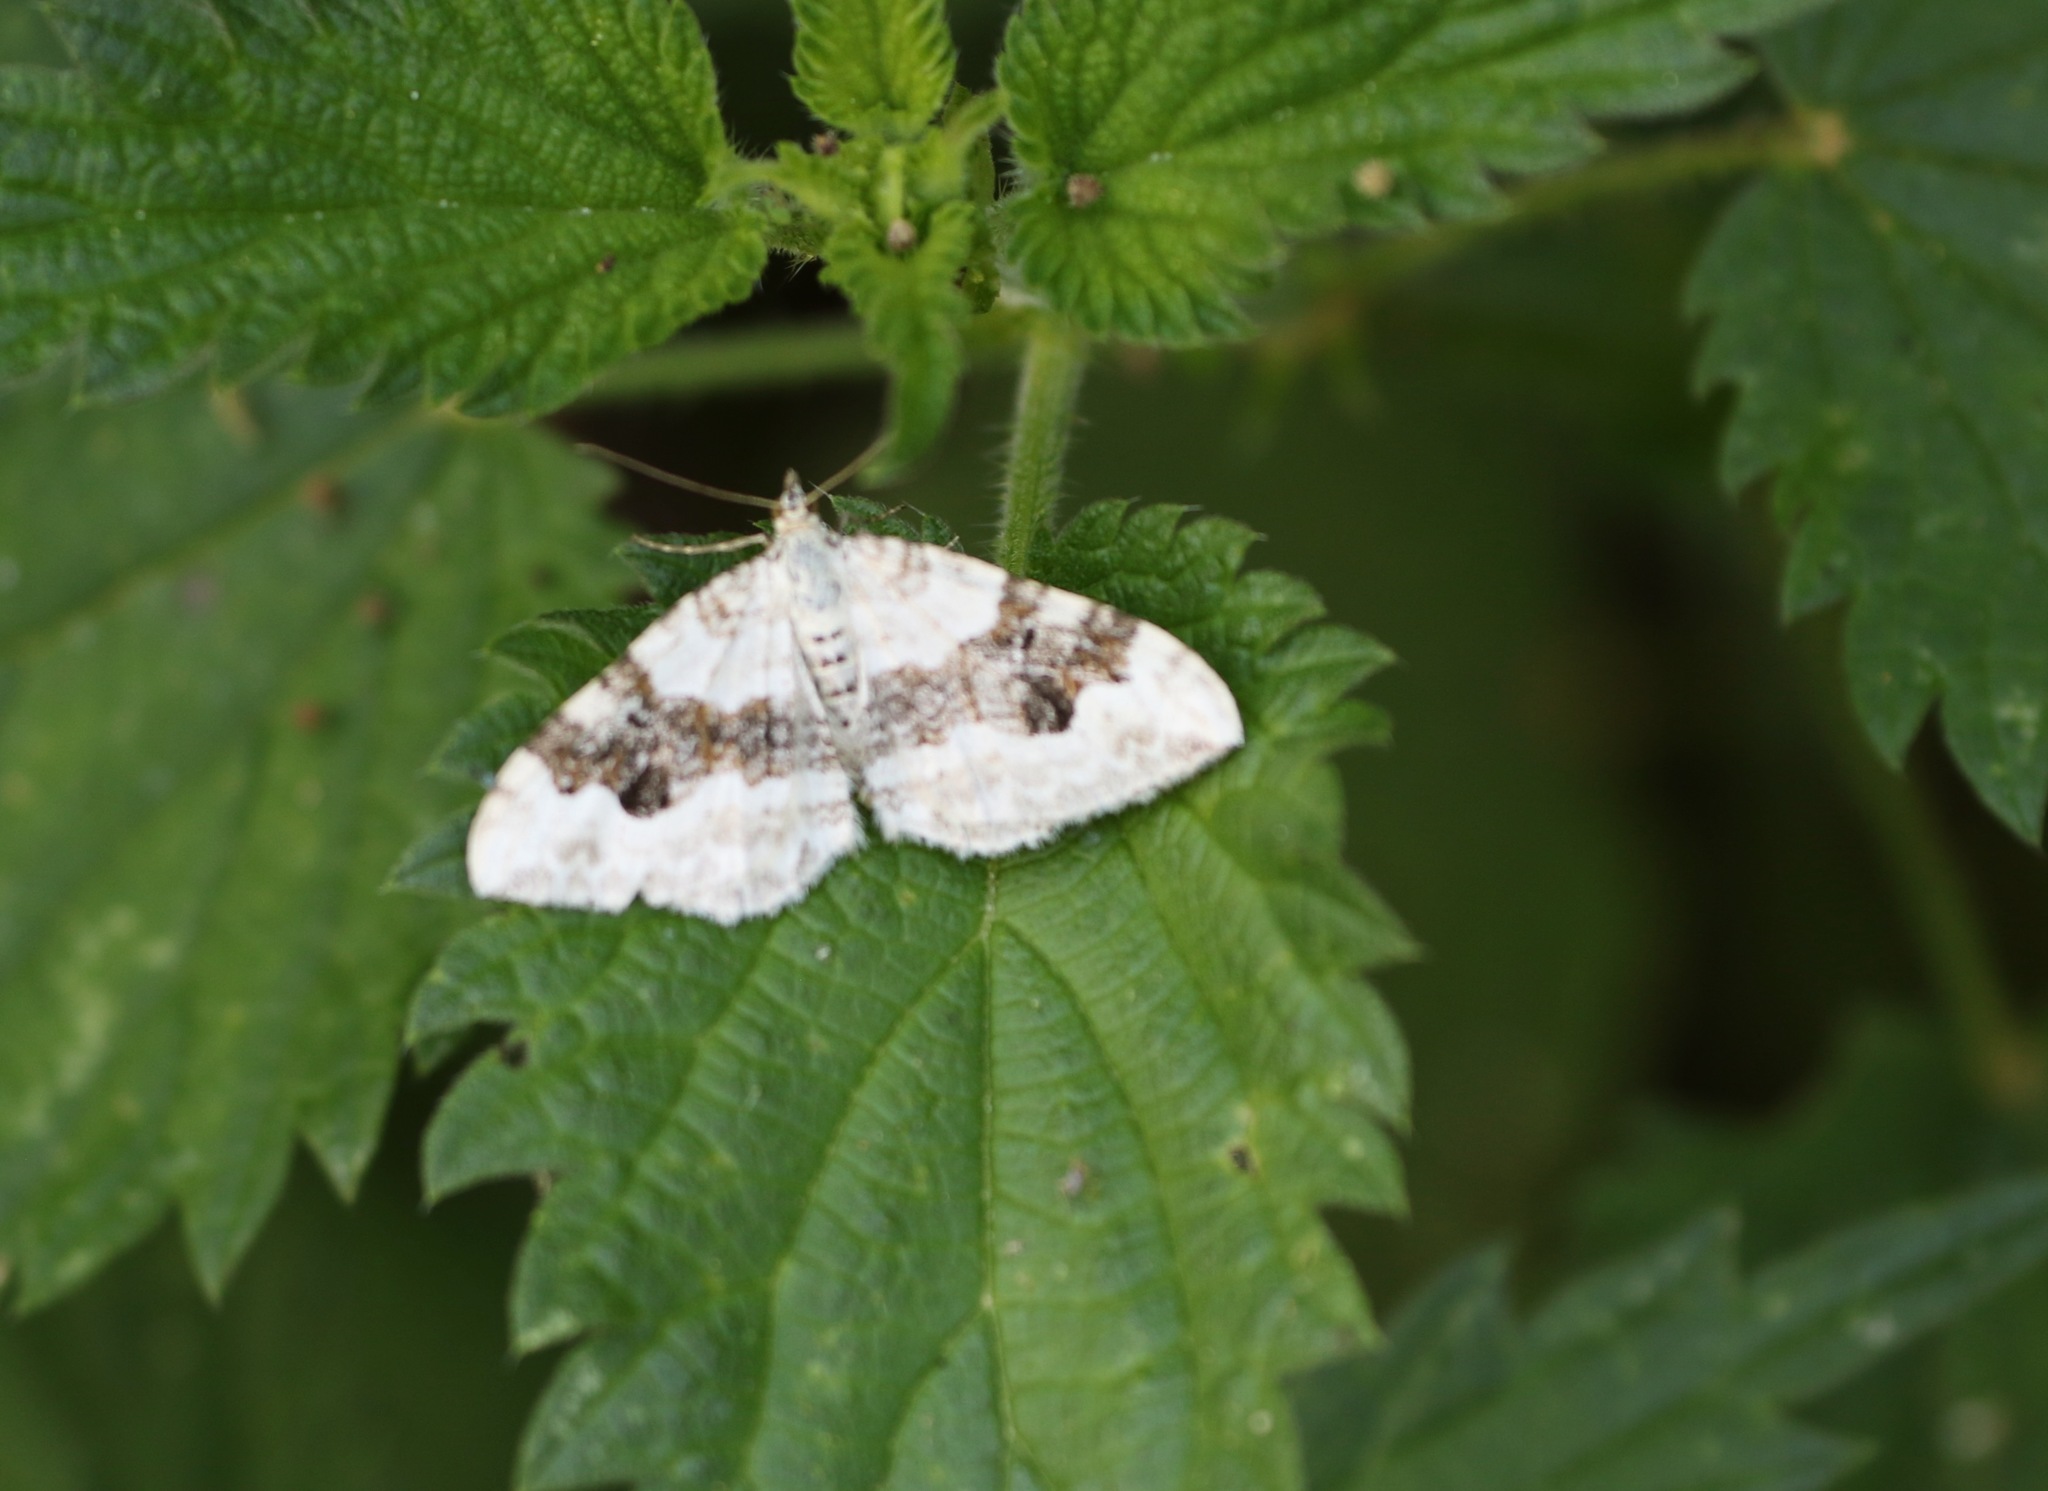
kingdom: Animalia
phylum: Arthropoda
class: Insecta
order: Lepidoptera
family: Geometridae
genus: Xanthorhoe
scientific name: Xanthorhoe montanata
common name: Silver-ground carpet
